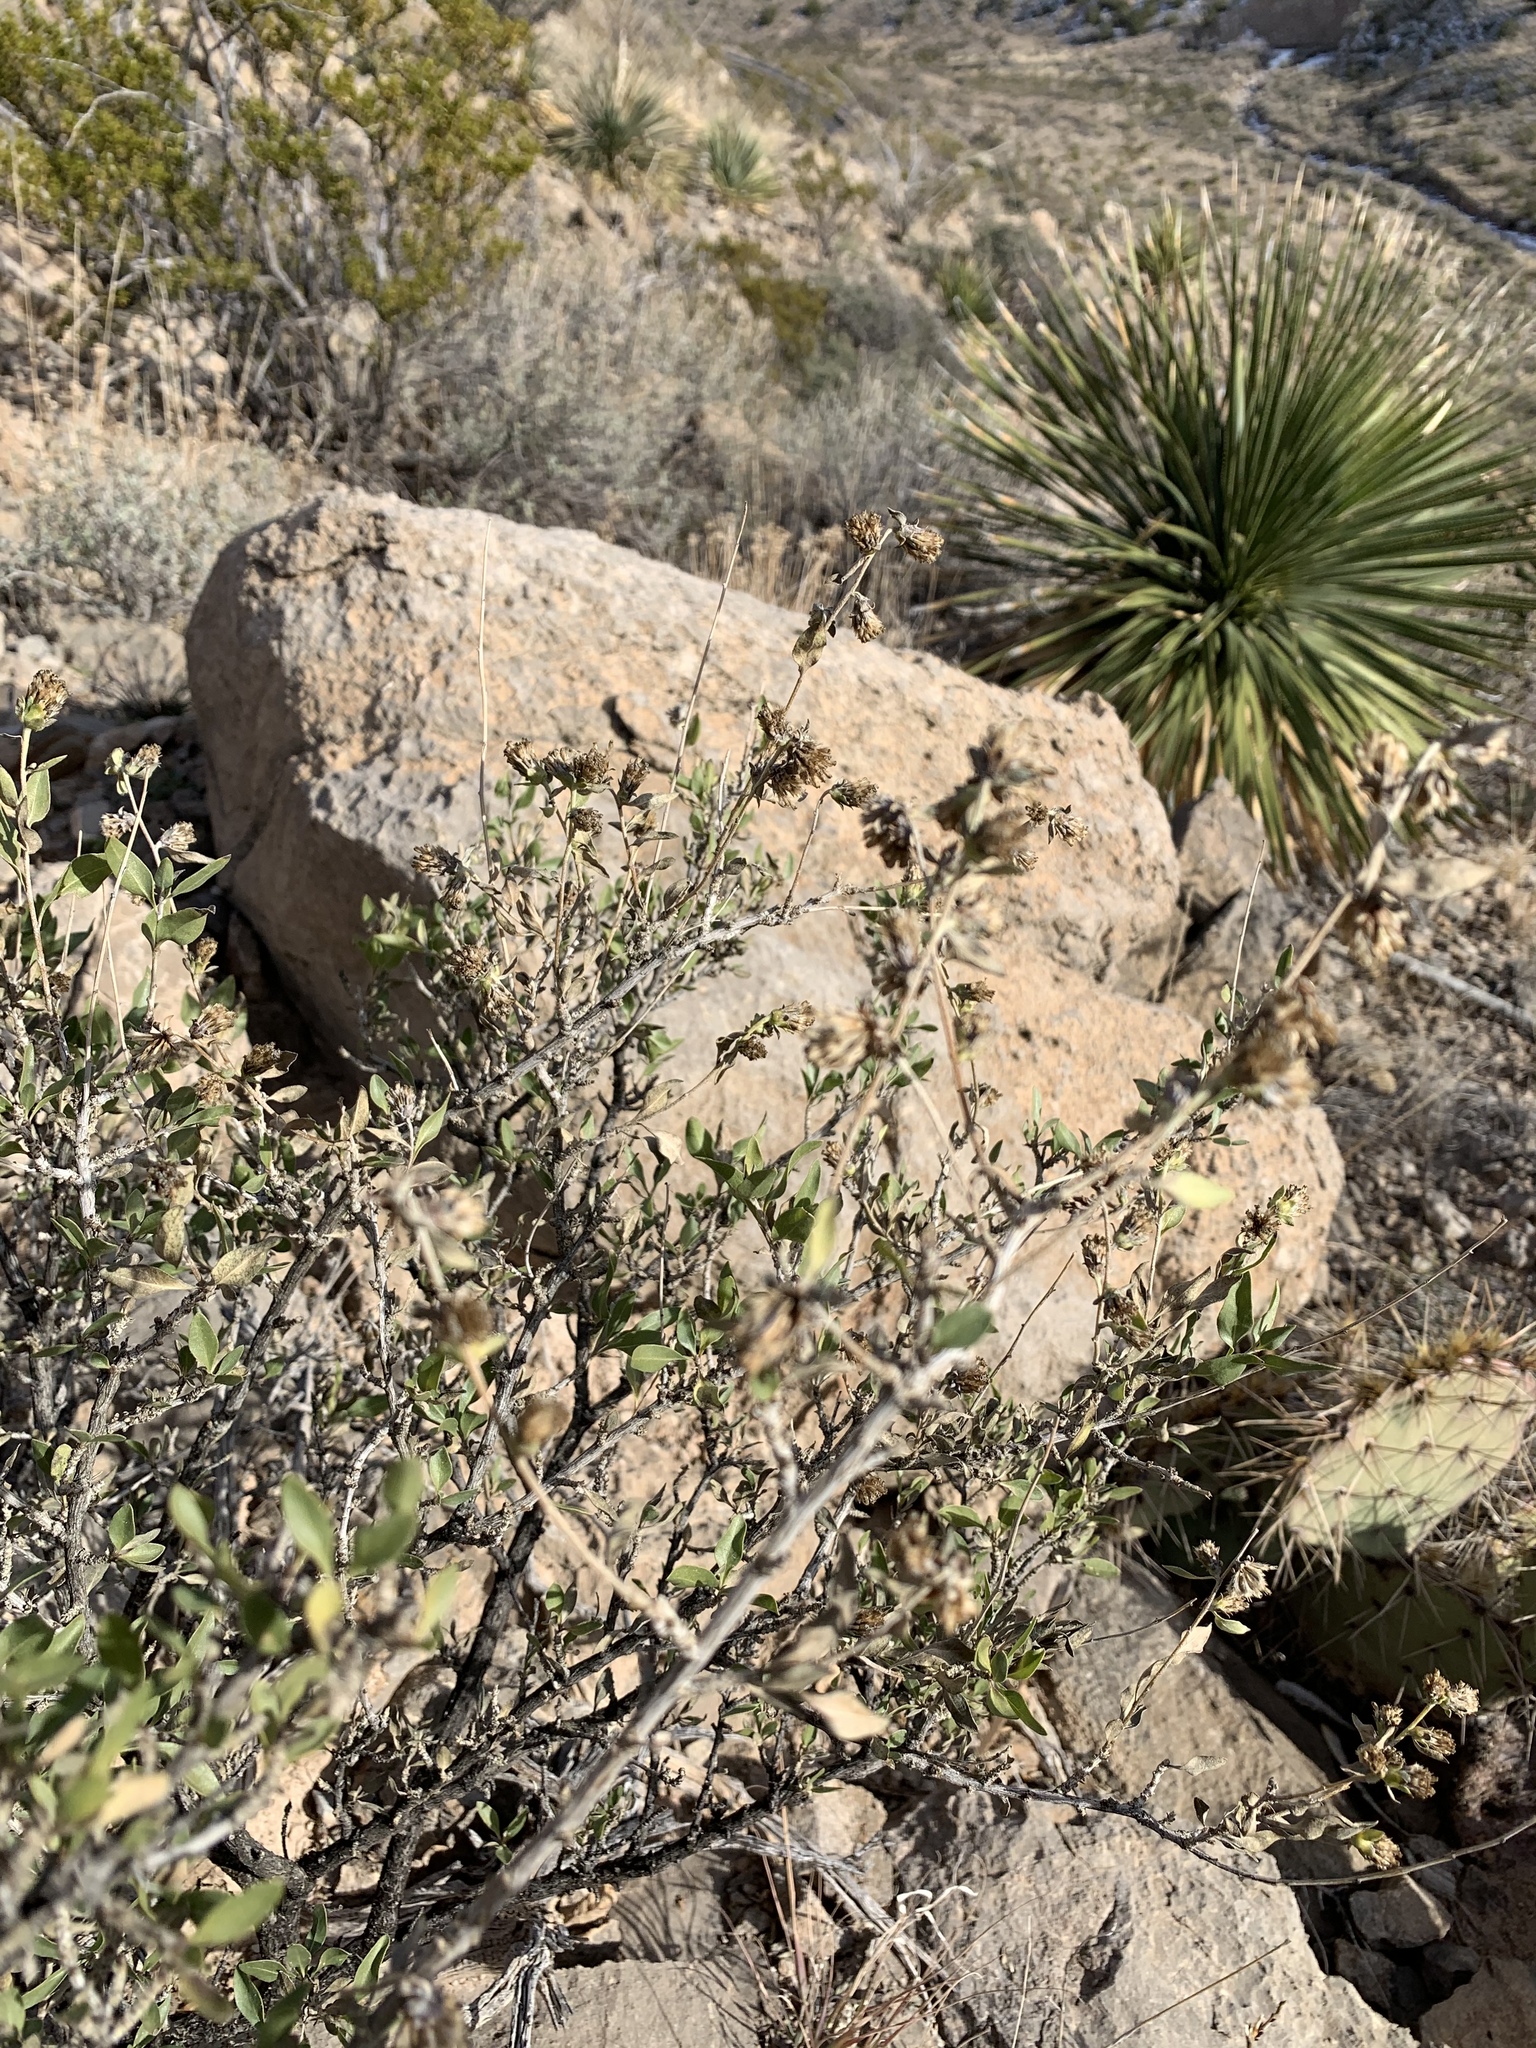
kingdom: Plantae
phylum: Tracheophyta
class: Magnoliopsida
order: Asterales
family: Asteraceae
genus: Flourensia
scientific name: Flourensia cernua
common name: Varnishbush
